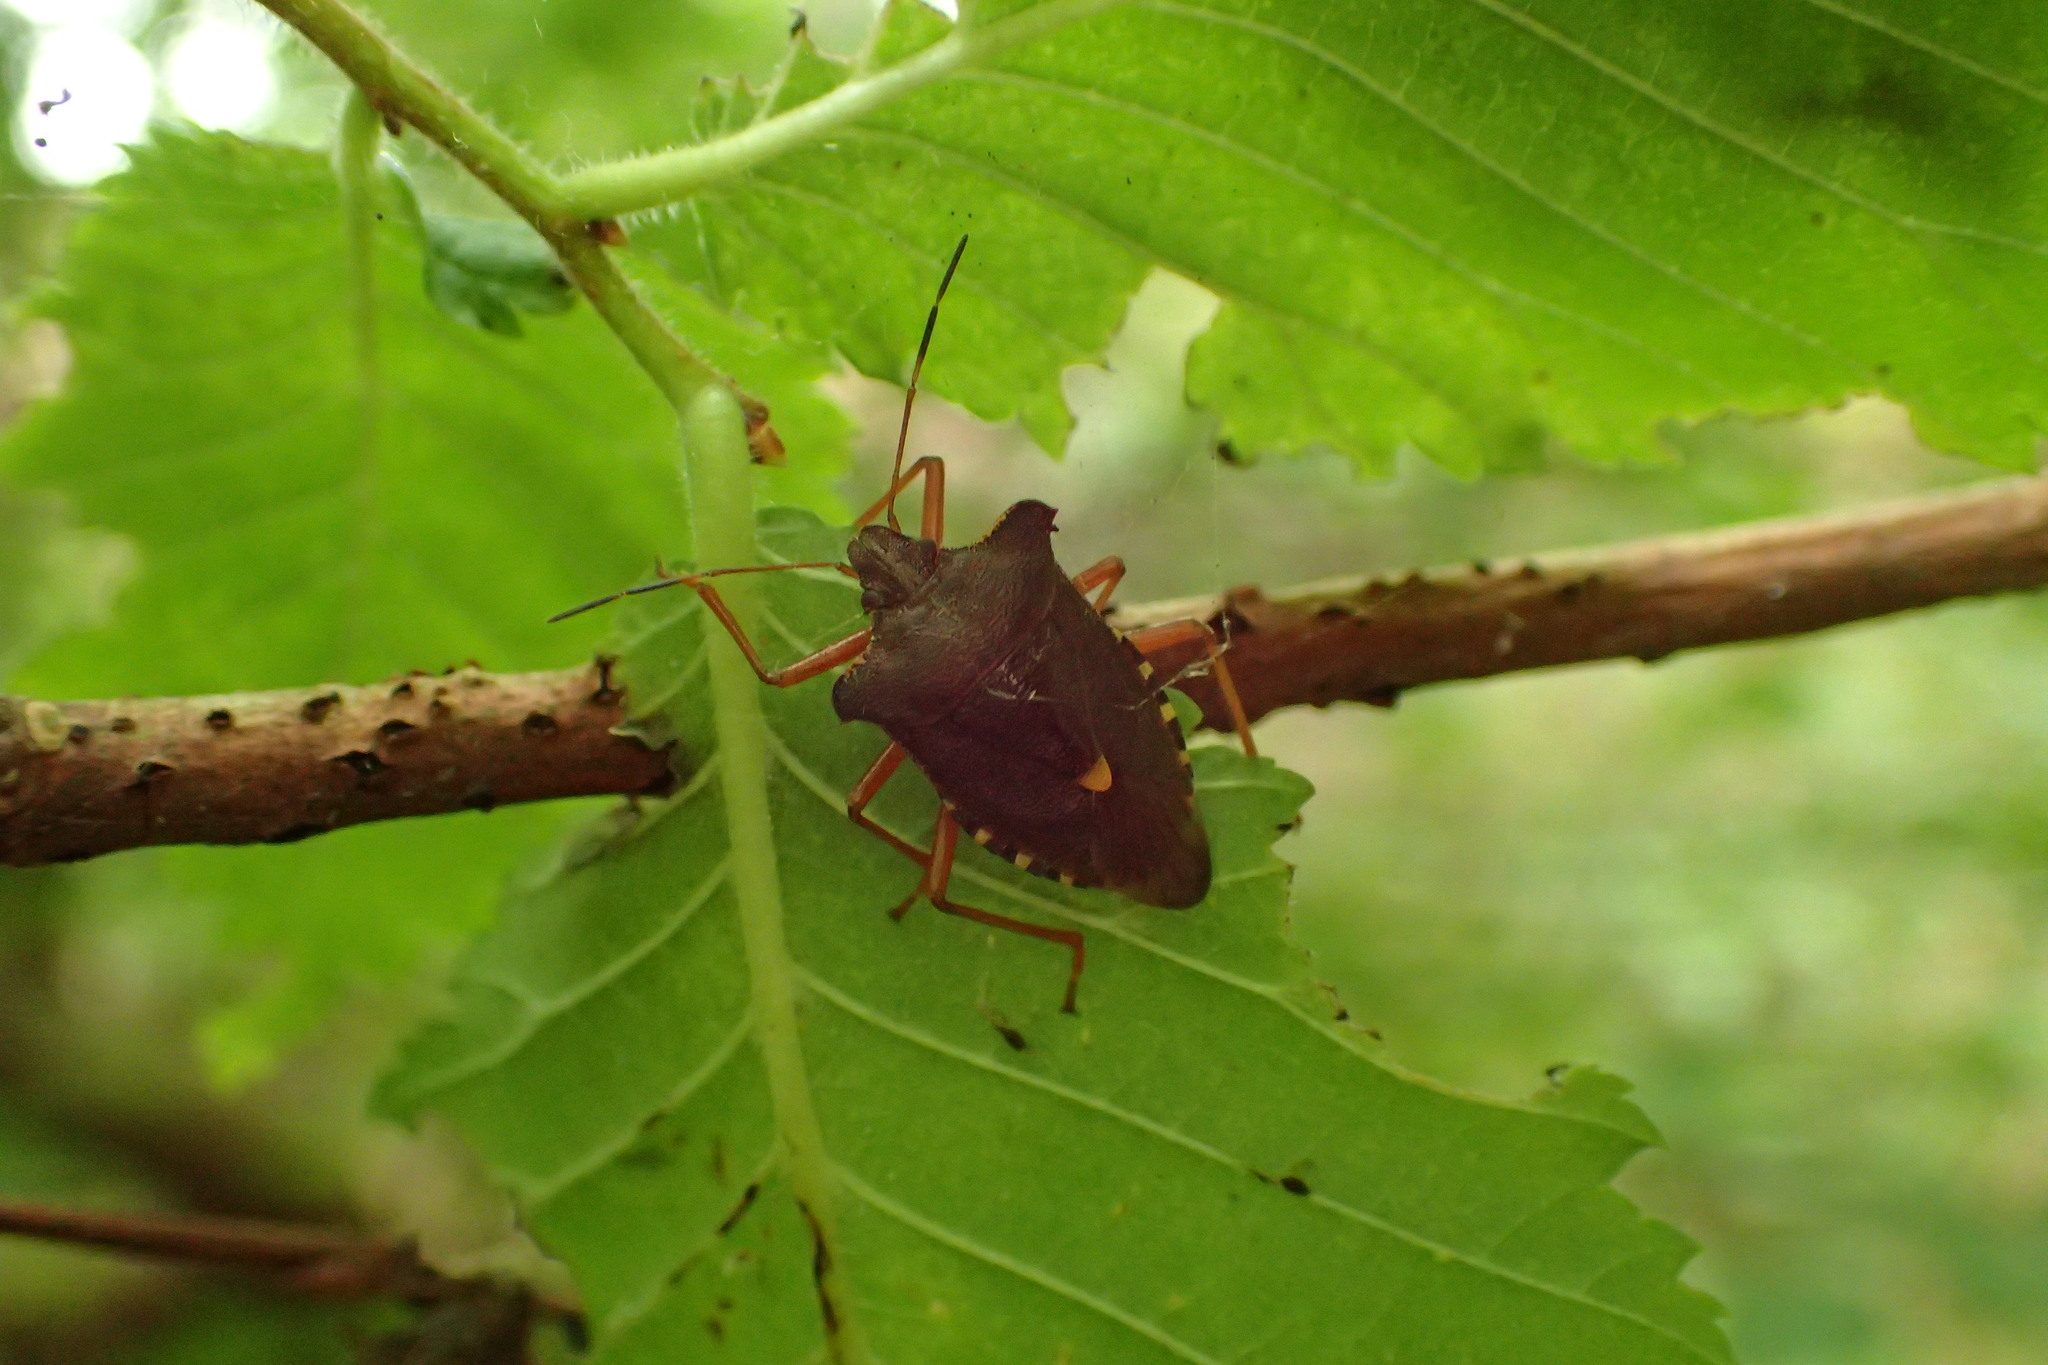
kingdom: Animalia
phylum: Arthropoda
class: Insecta
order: Hemiptera
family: Pentatomidae
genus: Pentatoma
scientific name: Pentatoma rufipes
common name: Forest bug
